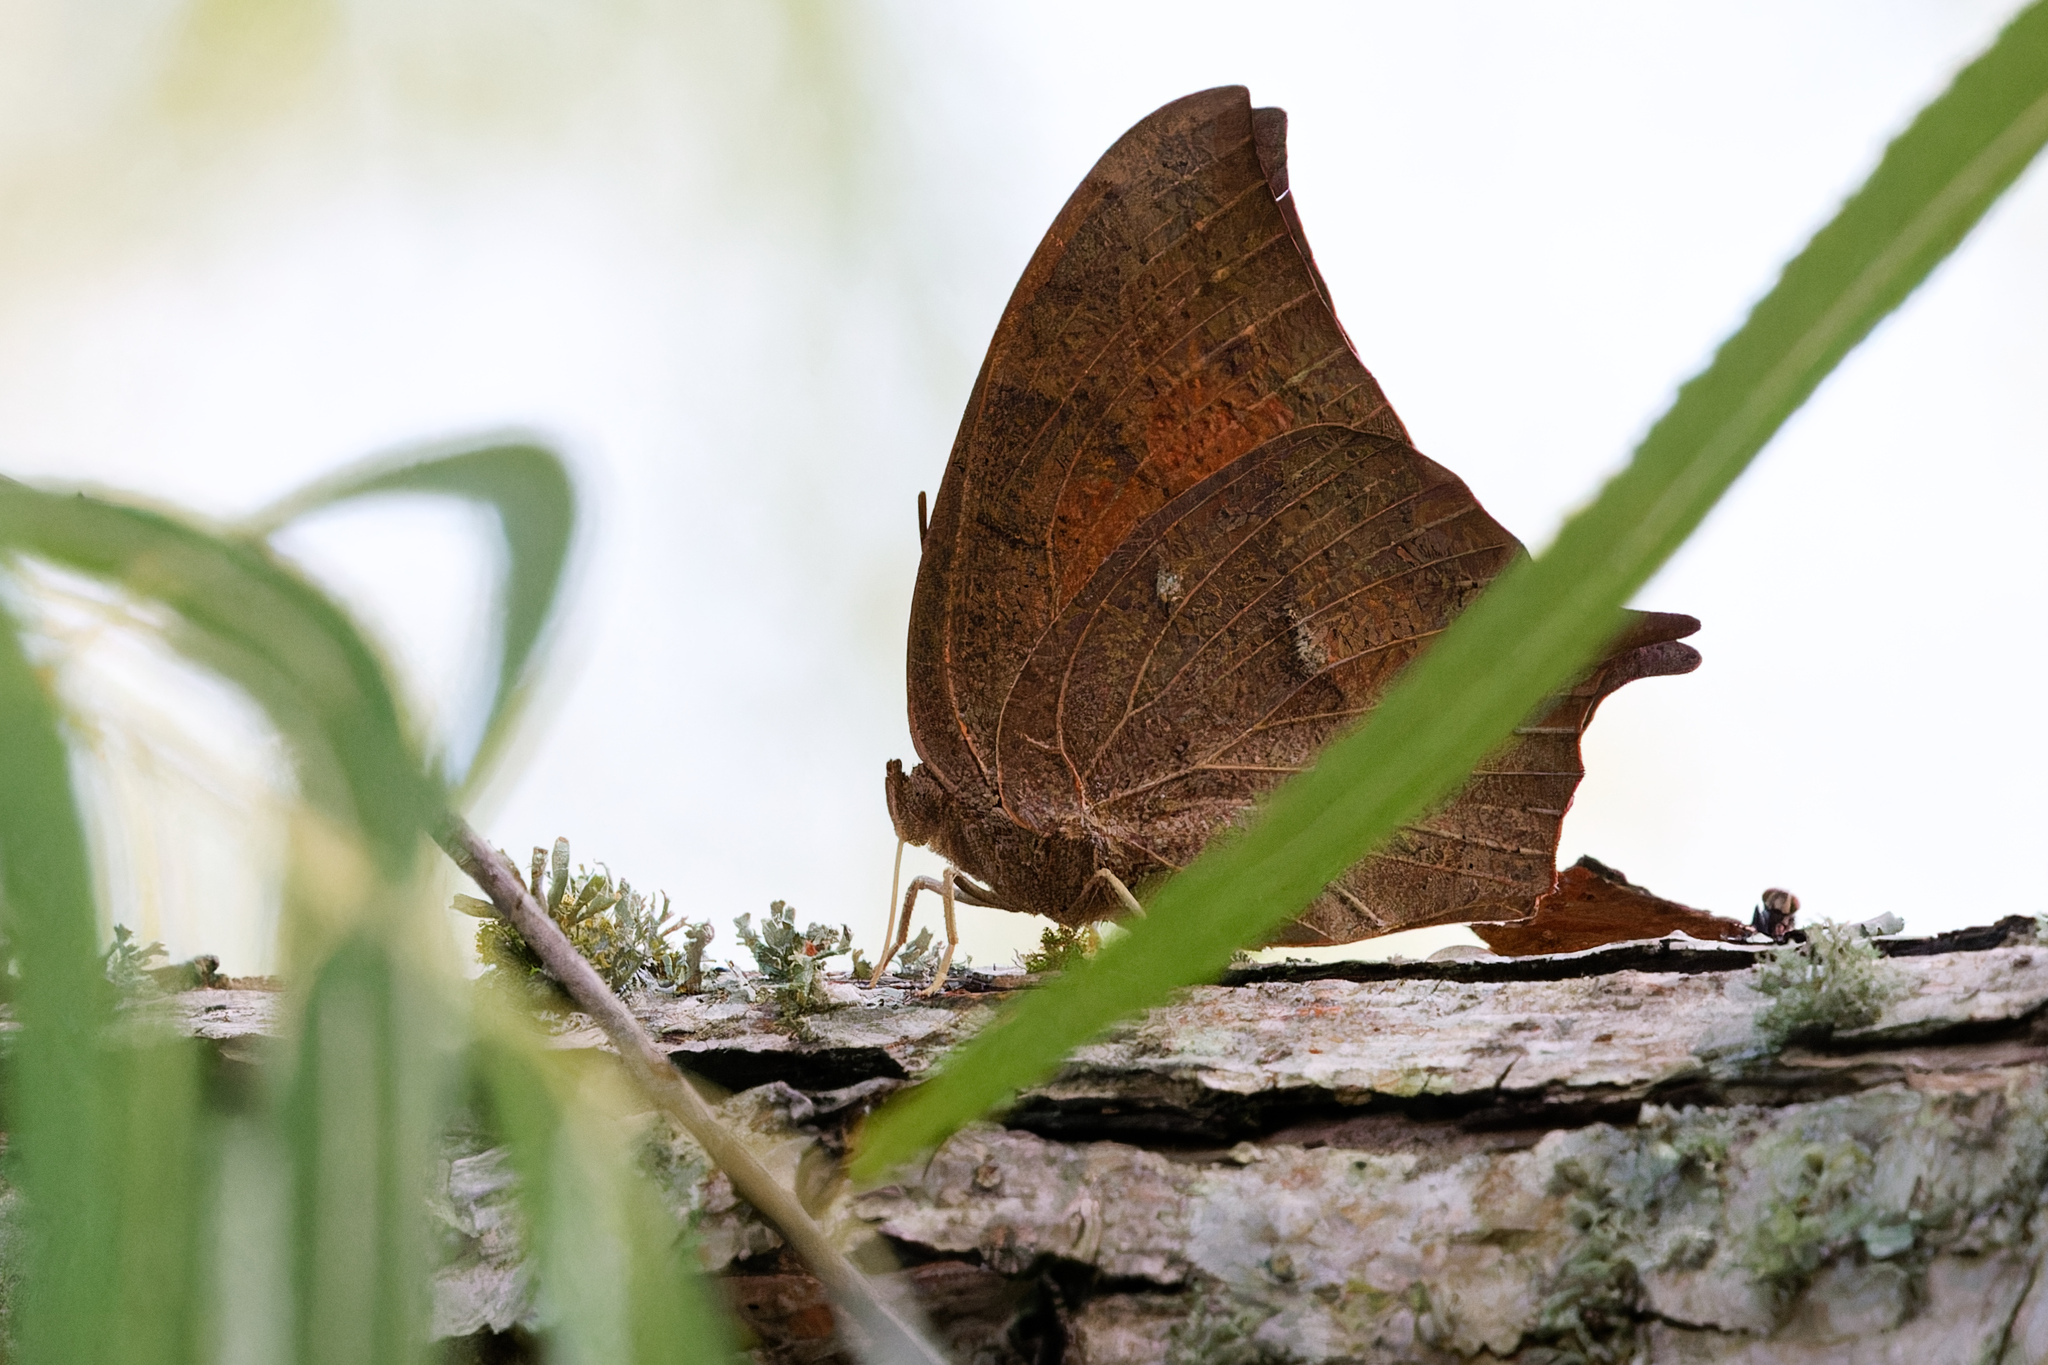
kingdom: Animalia
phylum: Arthropoda
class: Insecta
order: Lepidoptera
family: Nymphalidae
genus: Anaea
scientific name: Anaea andria
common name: Goatweed leafwing
